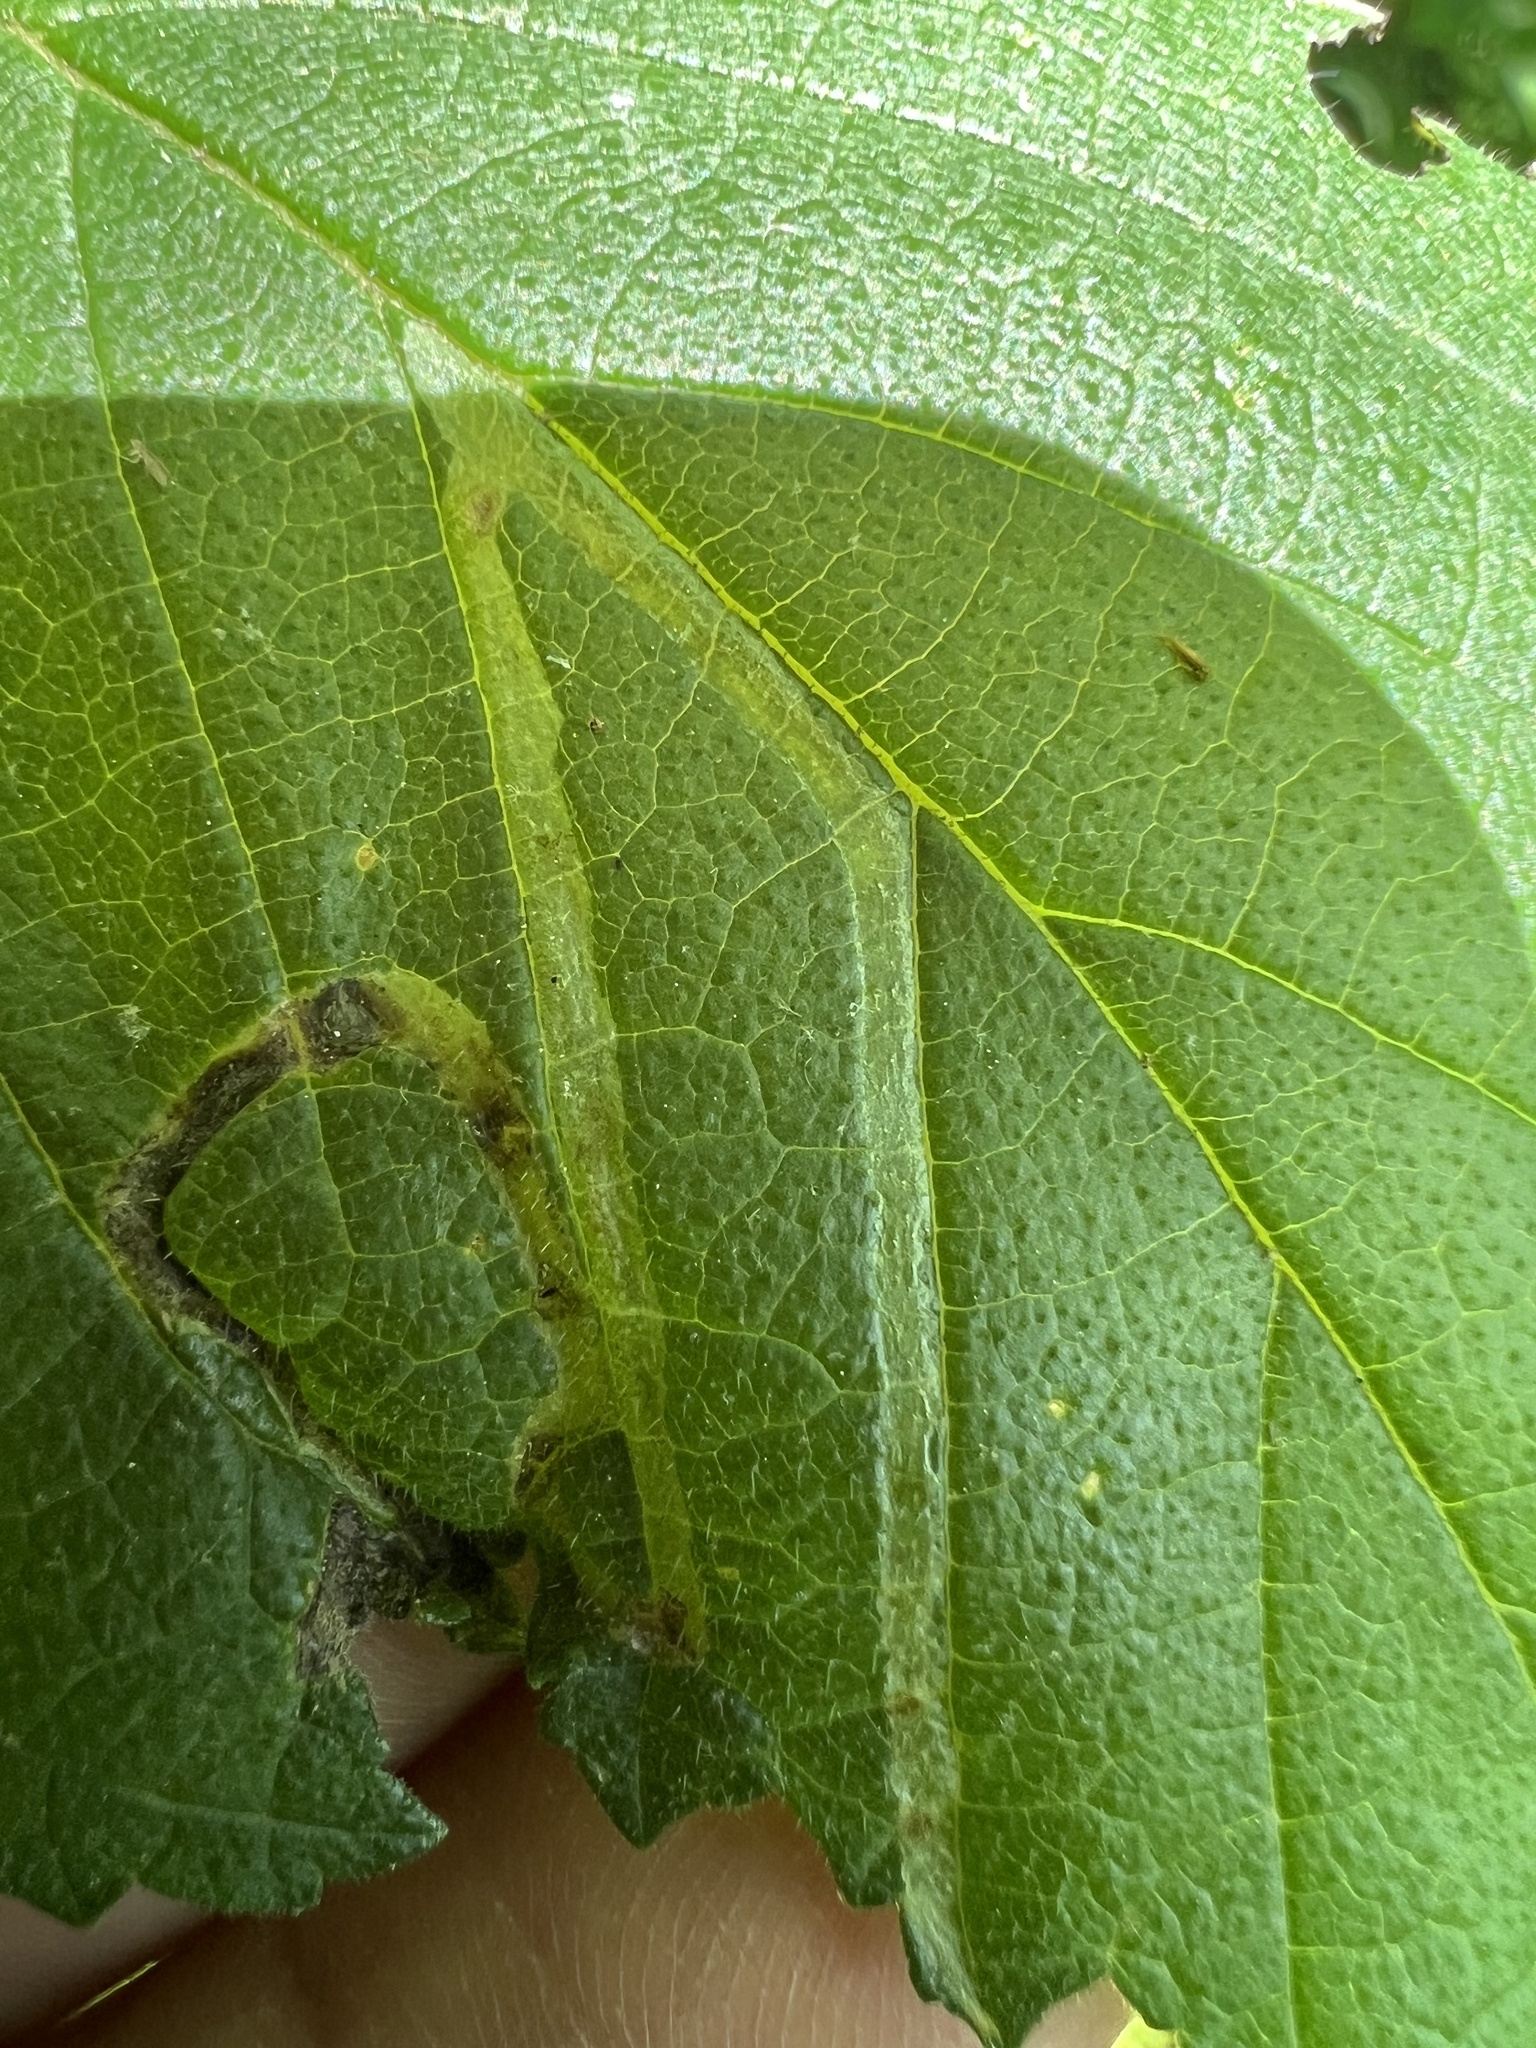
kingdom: Animalia
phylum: Arthropoda
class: Insecta
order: Diptera
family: Agromyzidae
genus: Agromyza
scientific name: Agromyza aristata
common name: Elm agromyzid leafminer
